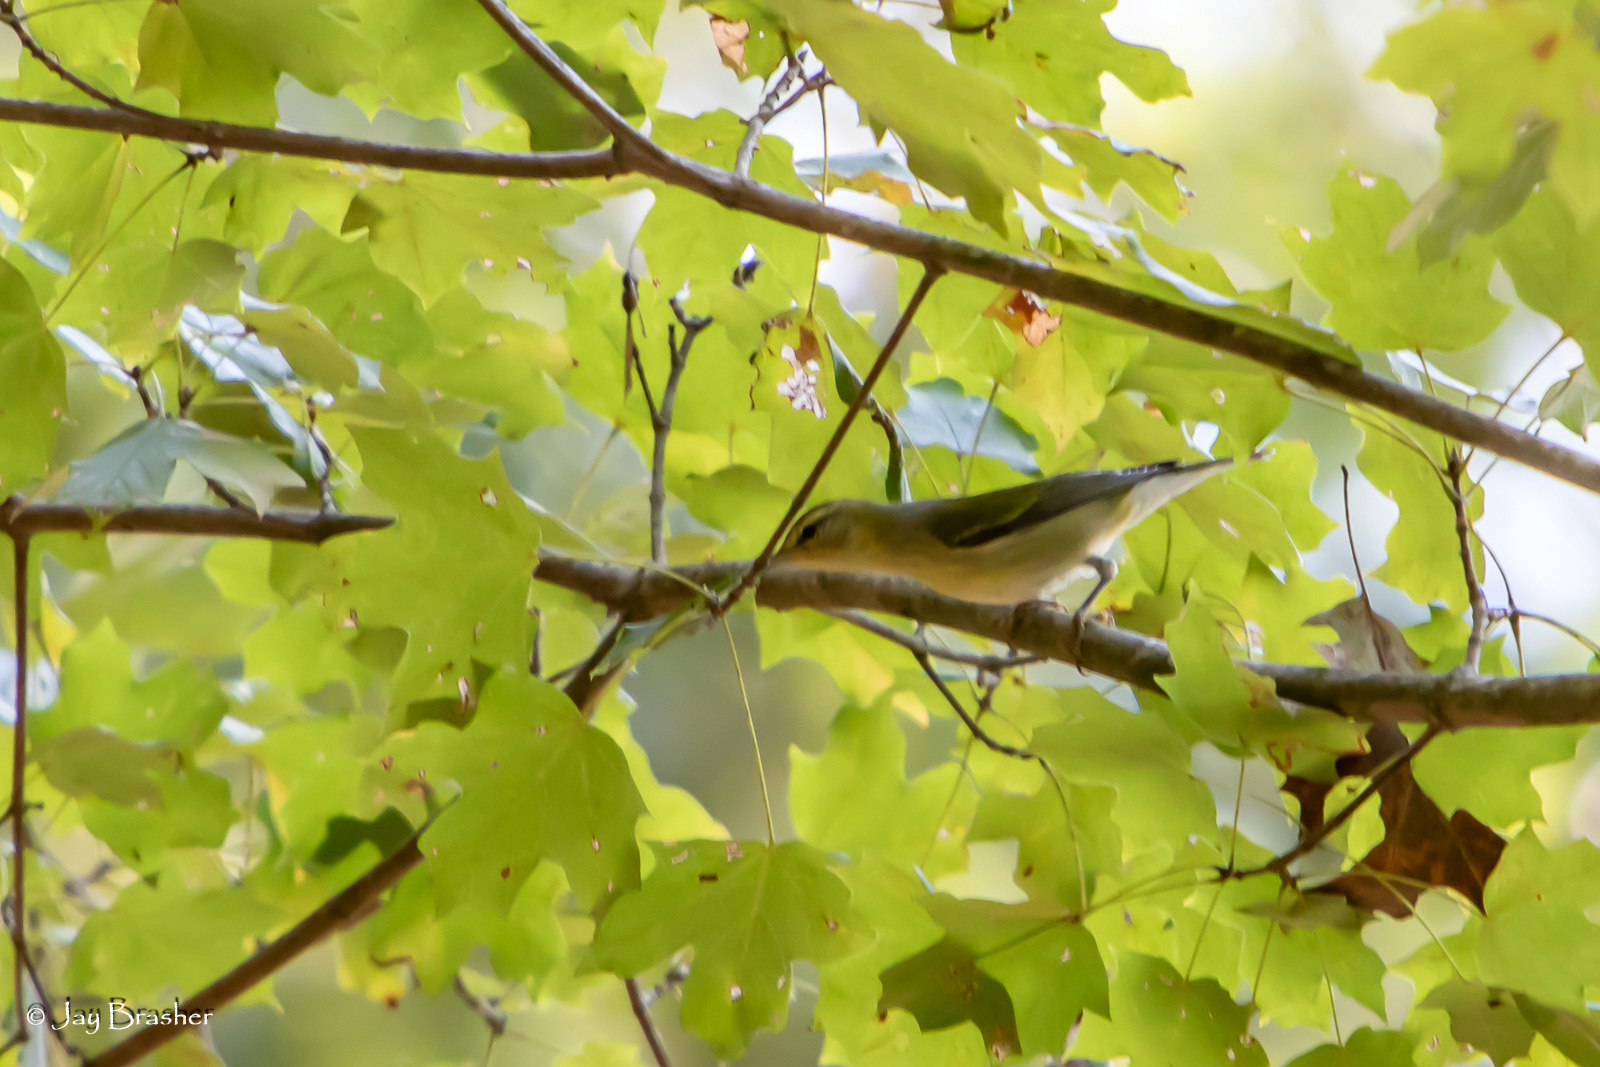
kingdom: Animalia
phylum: Chordata
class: Aves
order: Passeriformes
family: Parulidae
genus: Leiothlypis
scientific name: Leiothlypis peregrina
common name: Tennessee warbler
